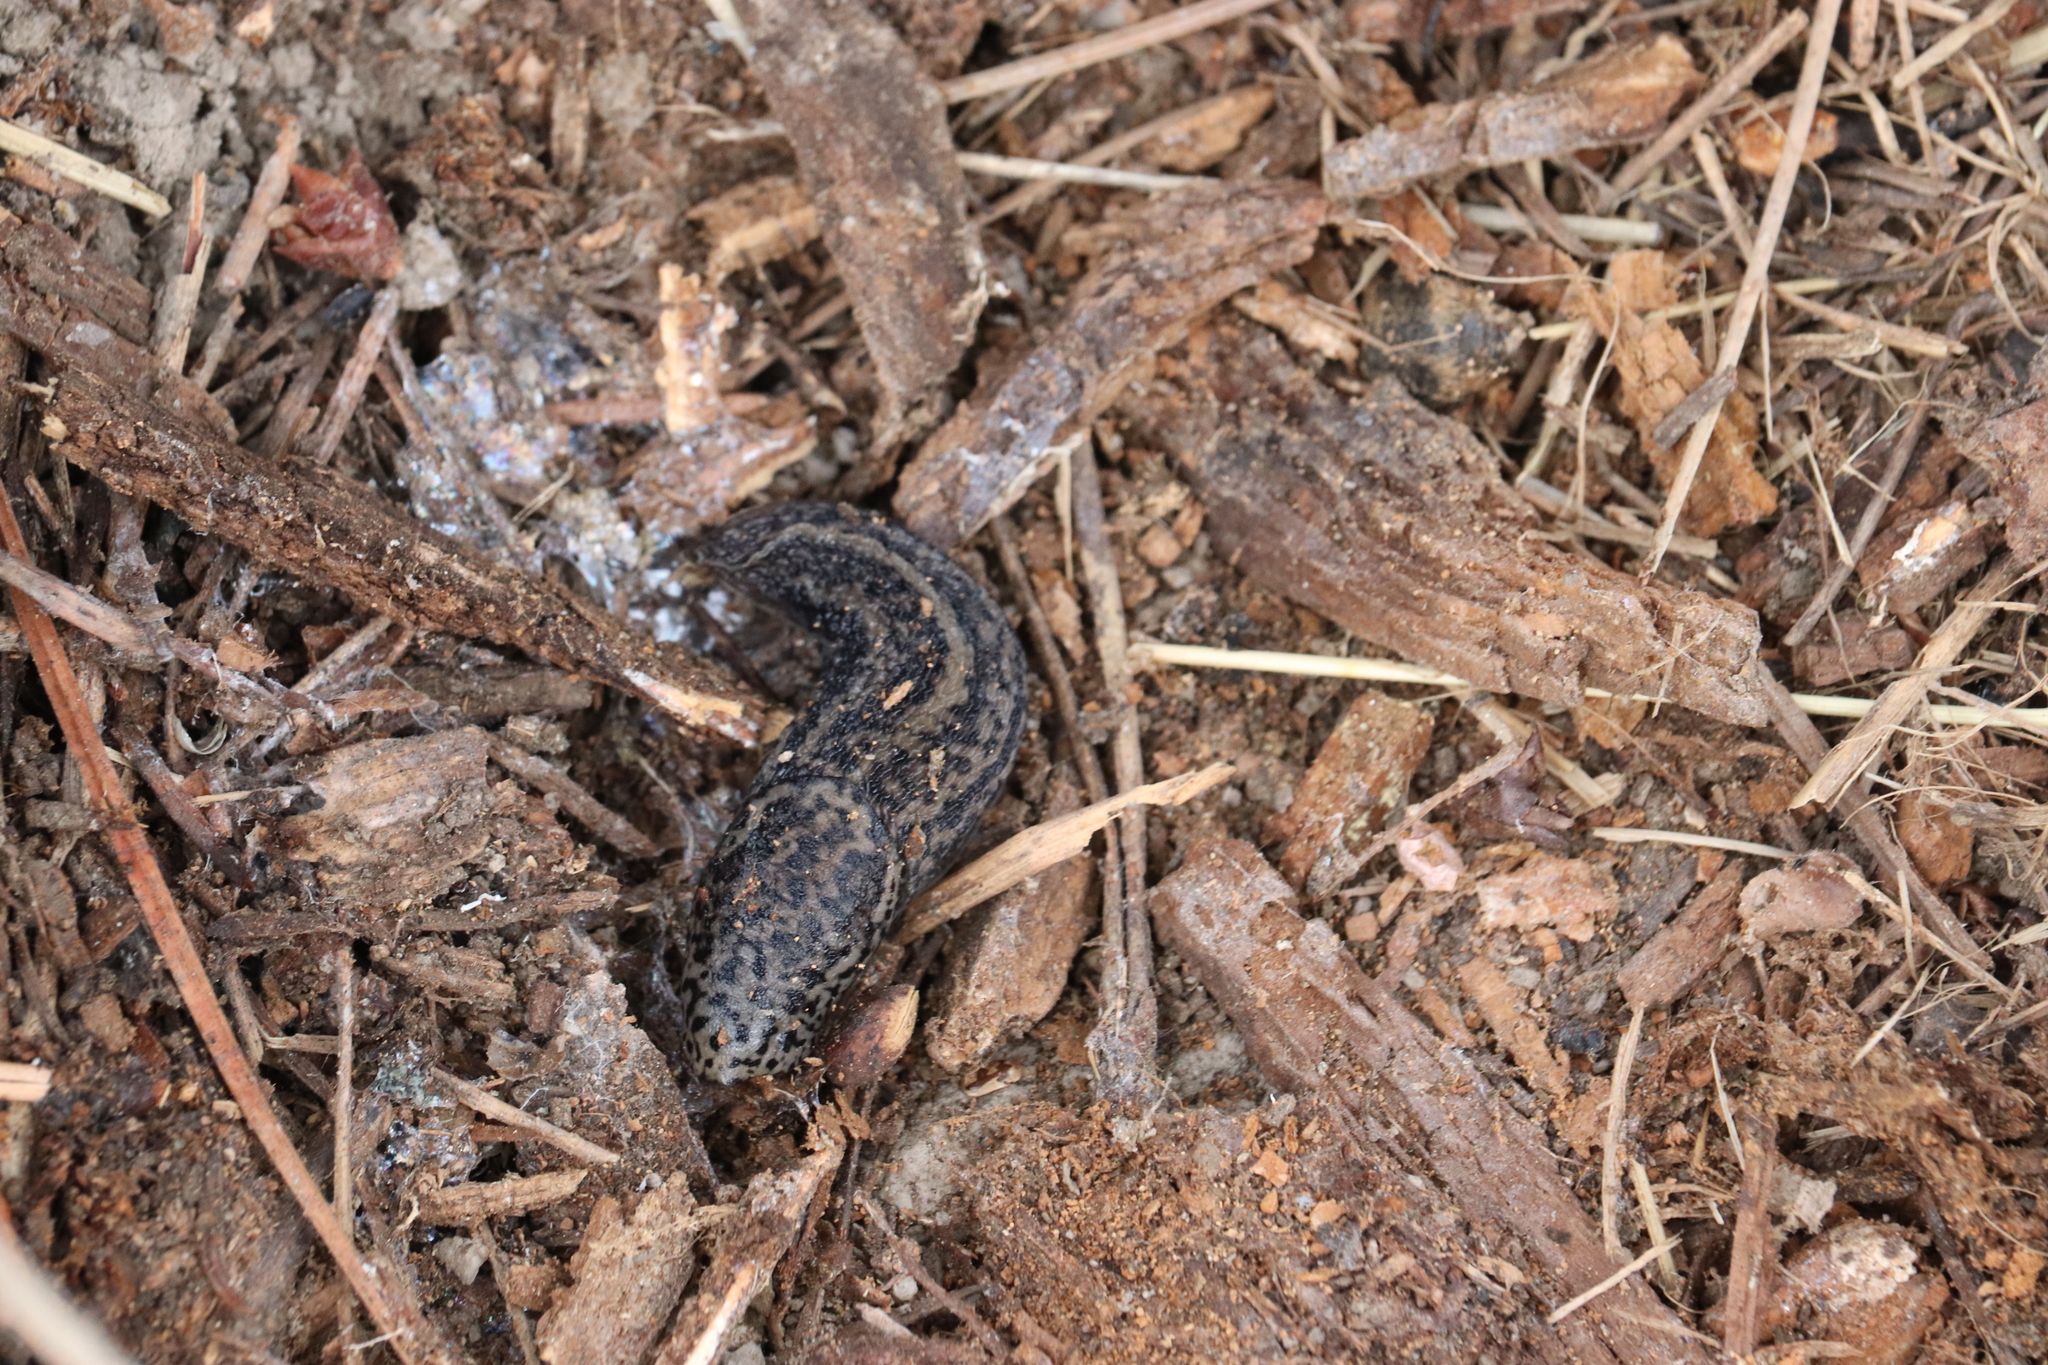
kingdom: Animalia
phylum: Mollusca
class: Gastropoda
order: Stylommatophora
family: Limacidae
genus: Limax
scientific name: Limax maximus
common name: Great grey slug
